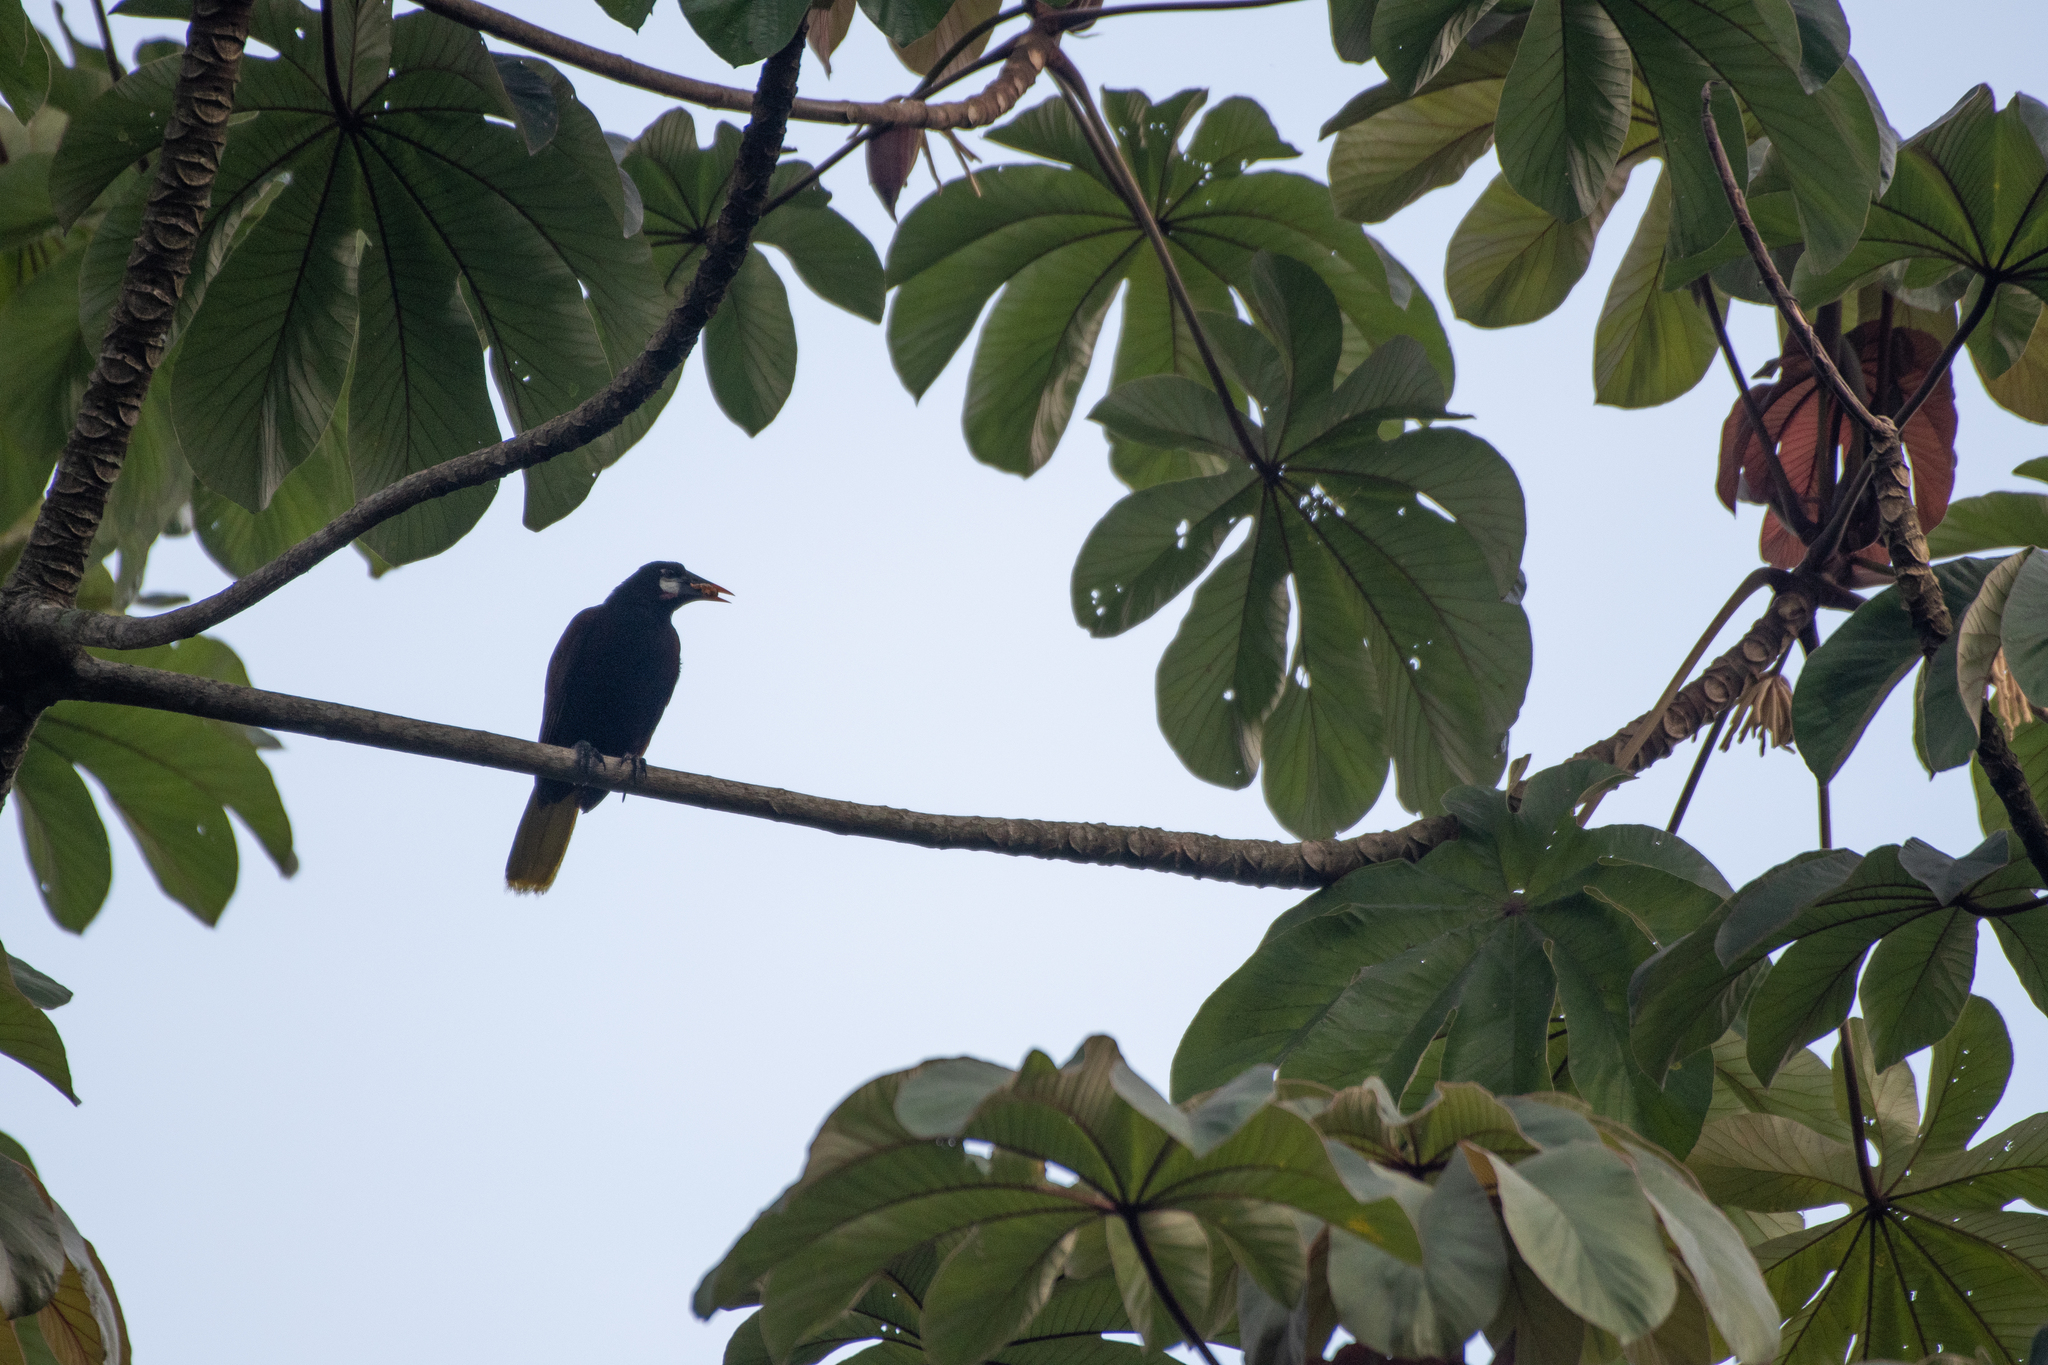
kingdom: Animalia
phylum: Chordata
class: Aves
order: Passeriformes
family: Icteridae
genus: Psarocolius
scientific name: Psarocolius montezuma
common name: Montezuma oropendola
